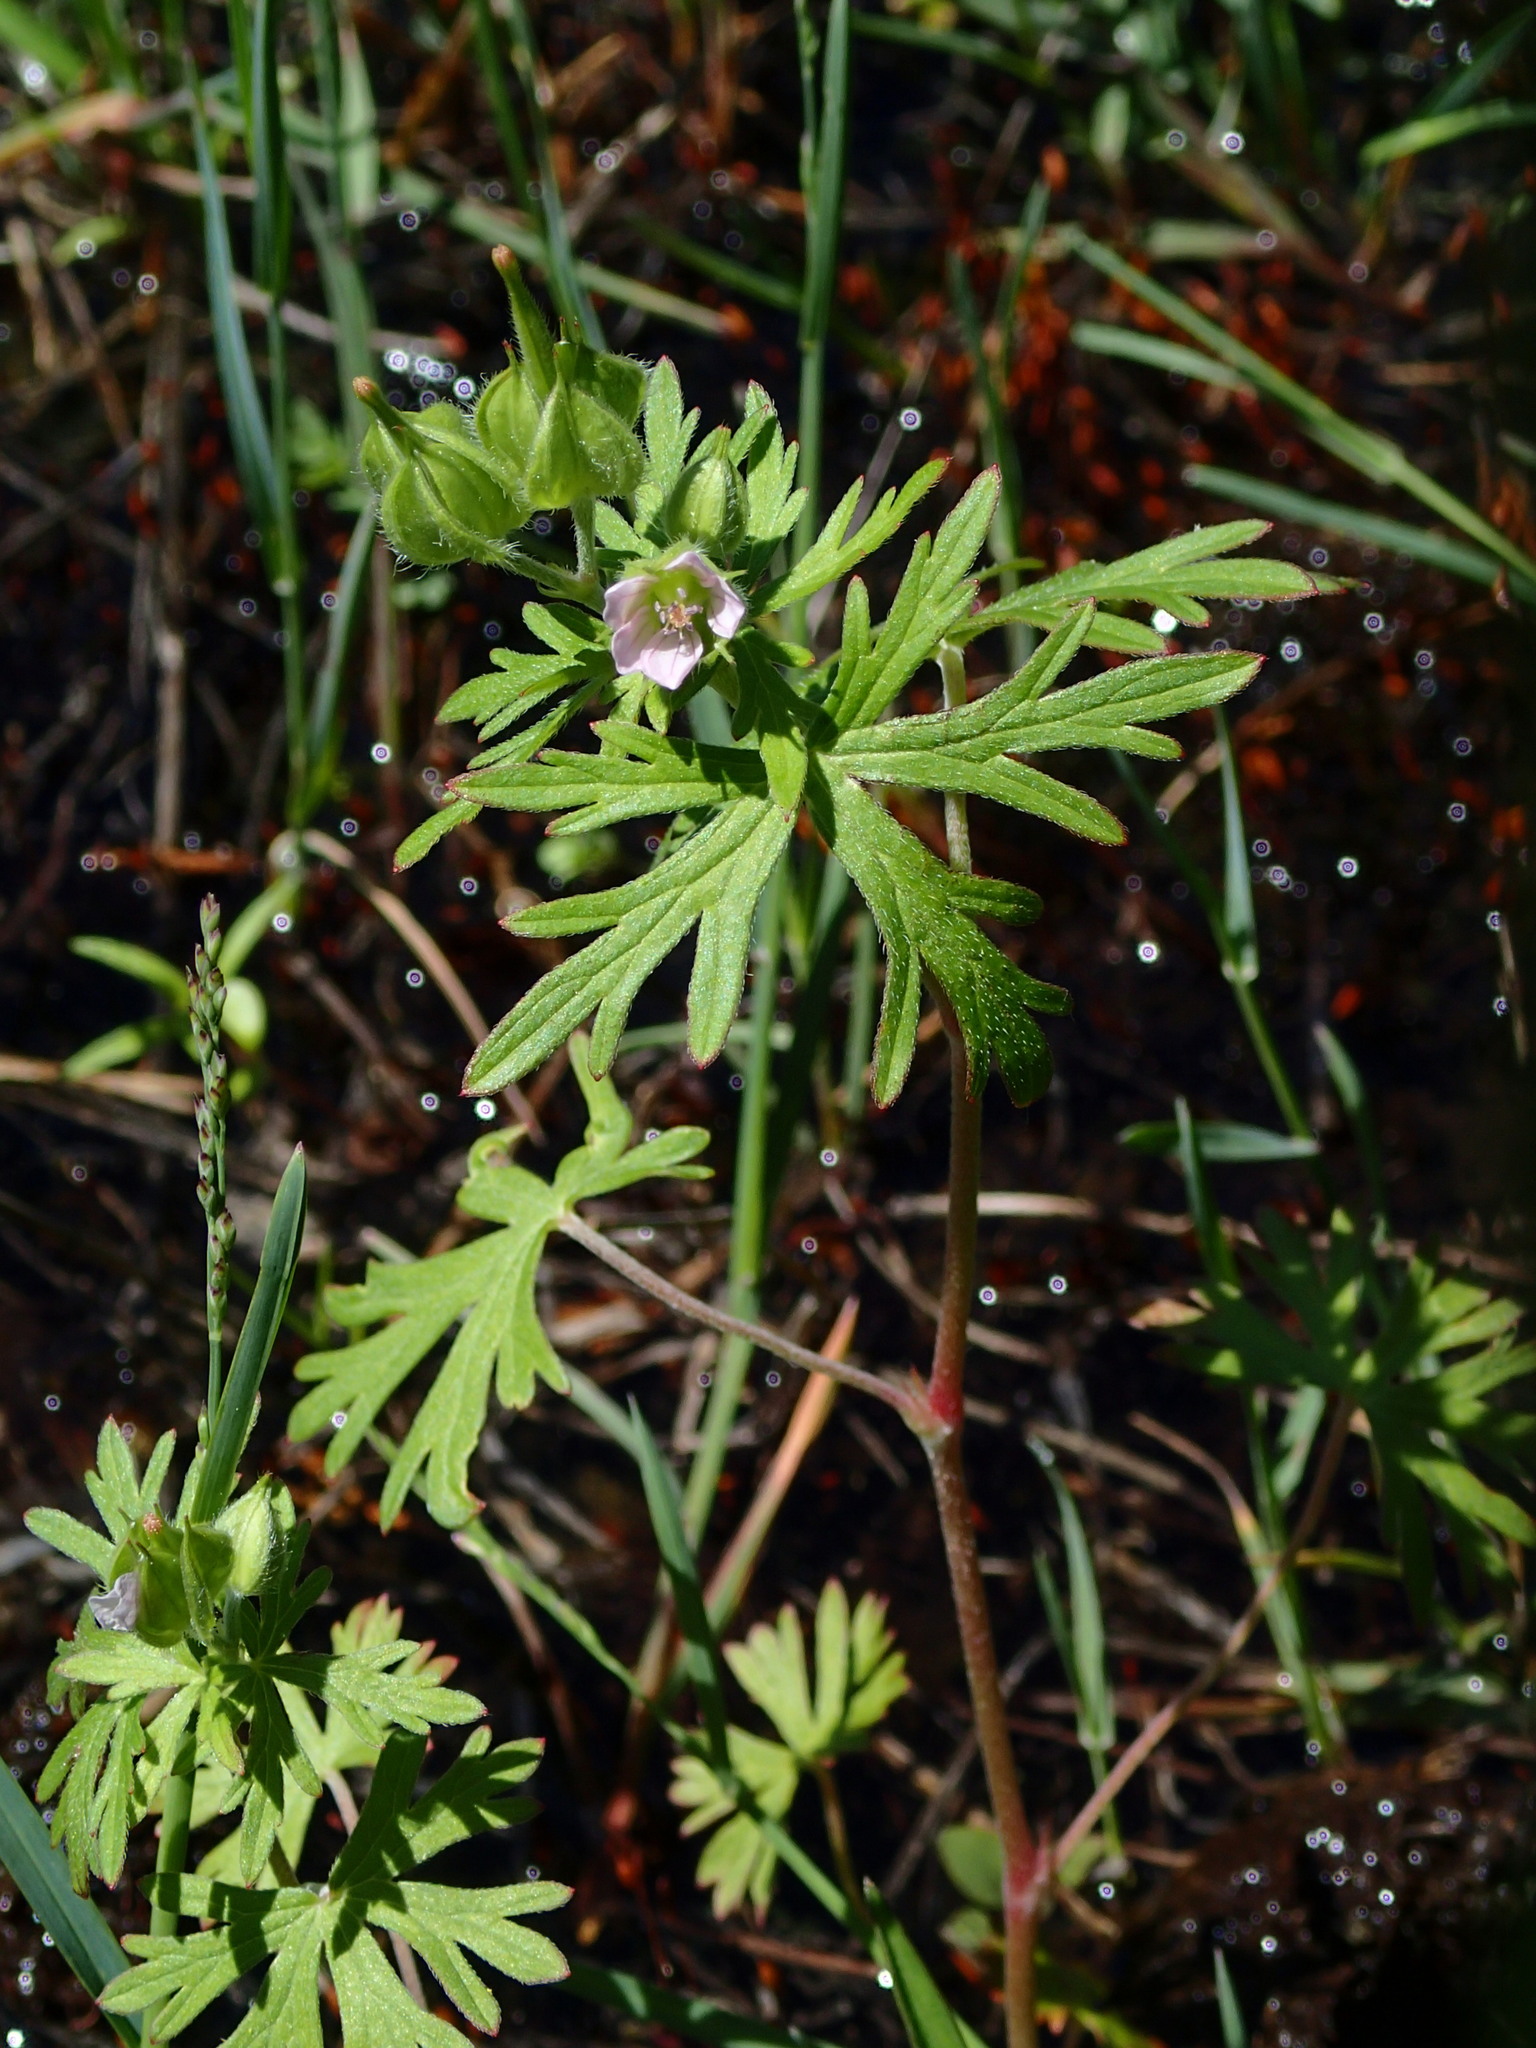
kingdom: Plantae
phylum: Tracheophyta
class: Magnoliopsida
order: Geraniales
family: Geraniaceae
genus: Geranium
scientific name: Geranium carolinianum
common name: Carolina crane's-bill
